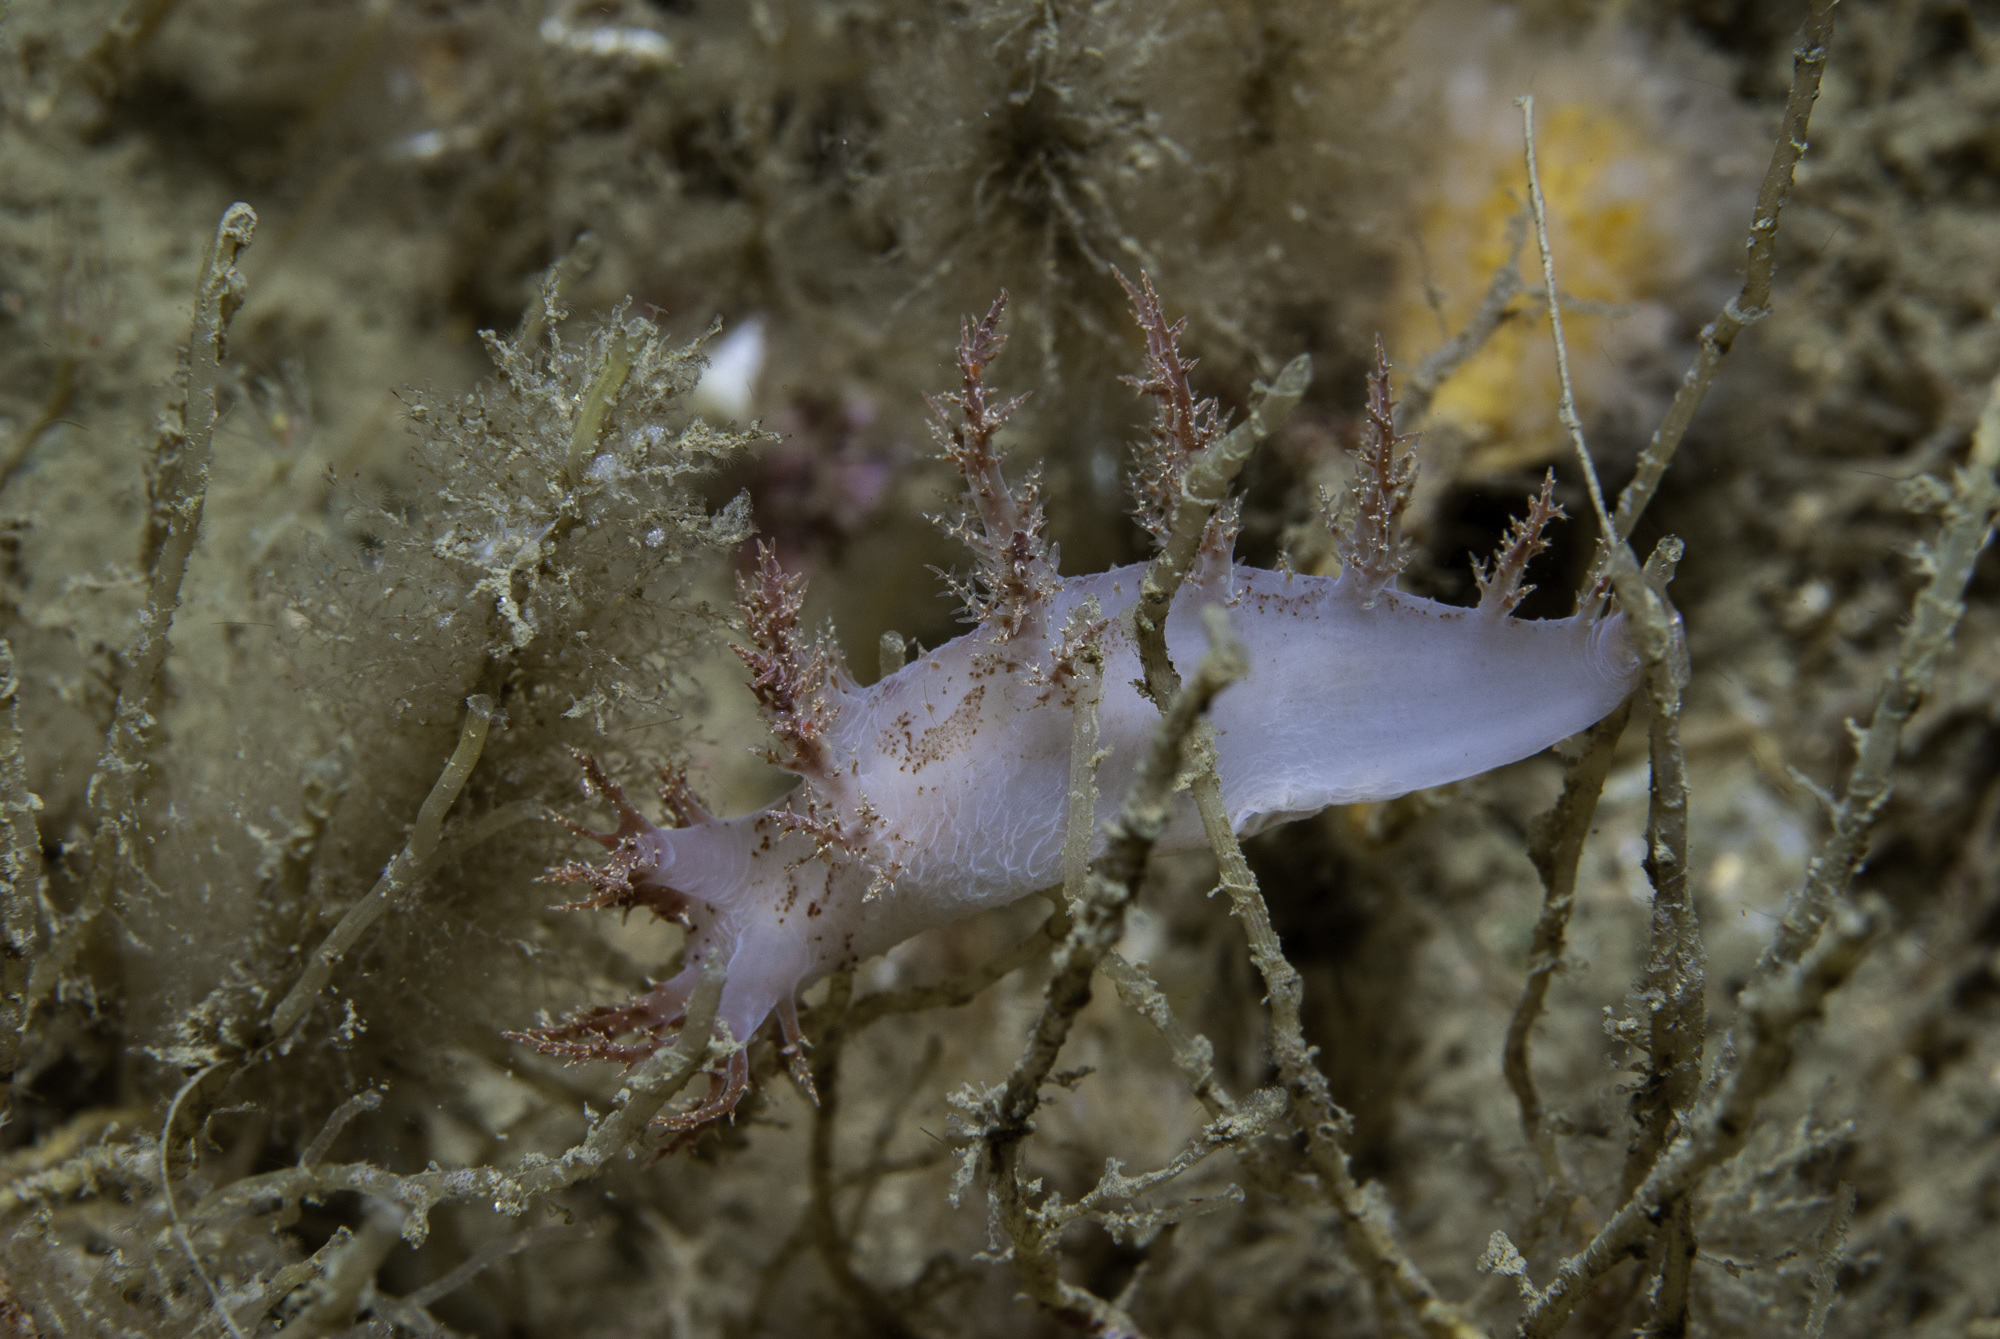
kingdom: Animalia
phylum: Mollusca
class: Gastropoda
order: Nudibranchia
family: Dendronotidae
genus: Dendronotus
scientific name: Dendronotus europaeus
